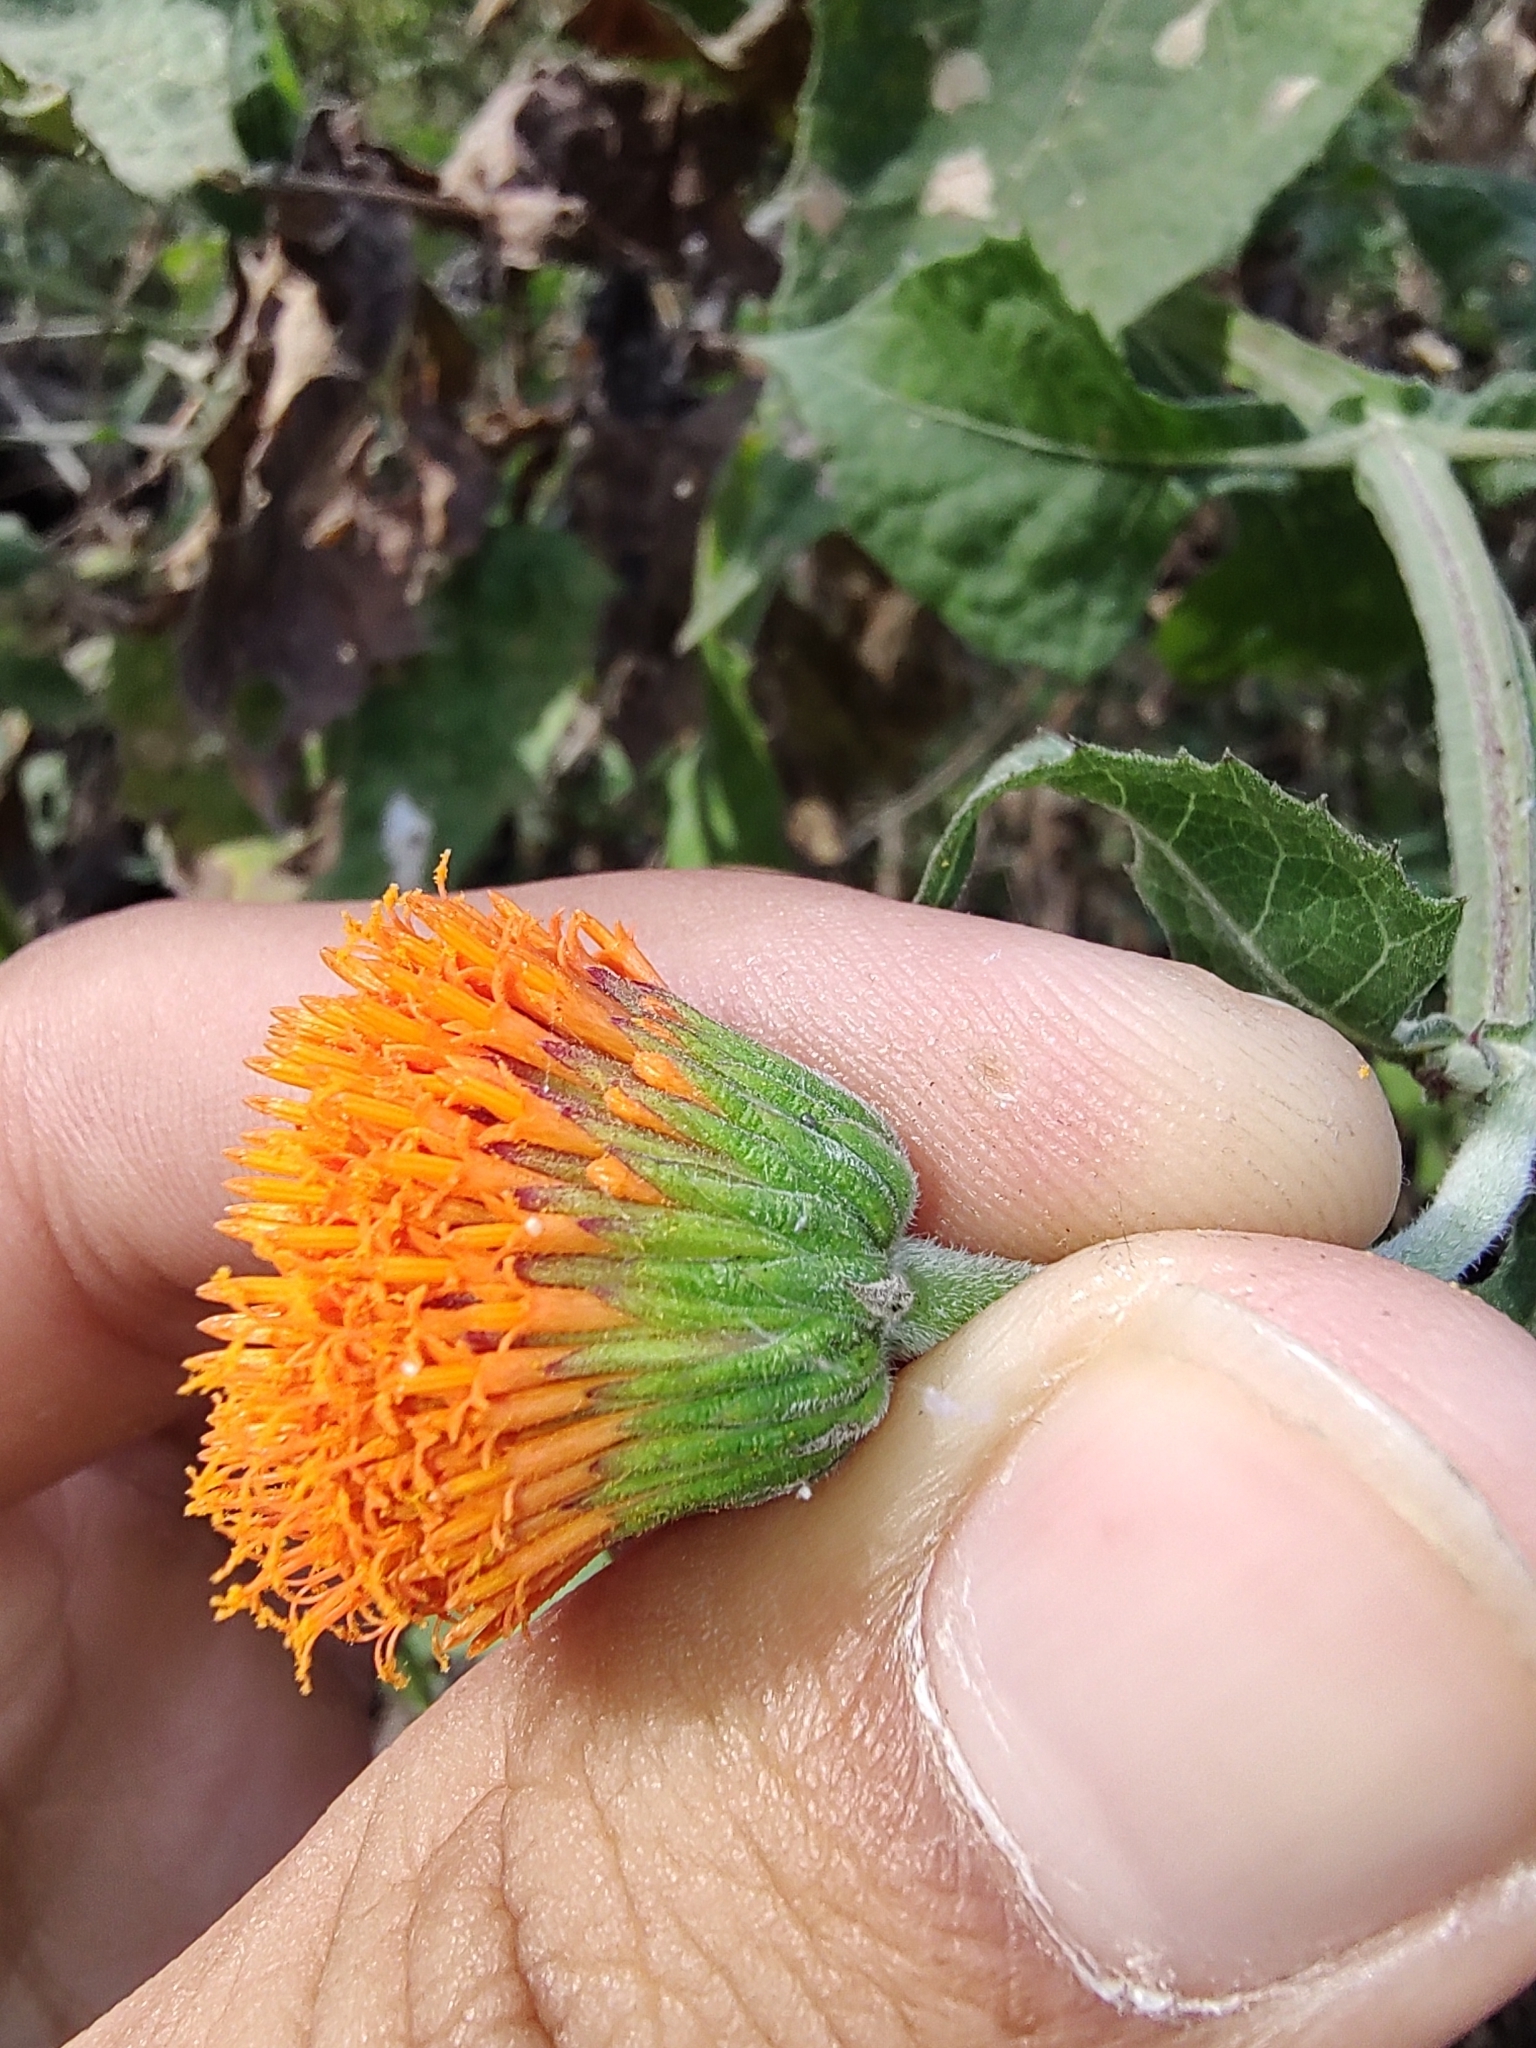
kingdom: Plantae
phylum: Tracheophyta
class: Magnoliopsida
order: Asterales
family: Asteraceae
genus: Verbesina
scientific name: Verbesina crocata
